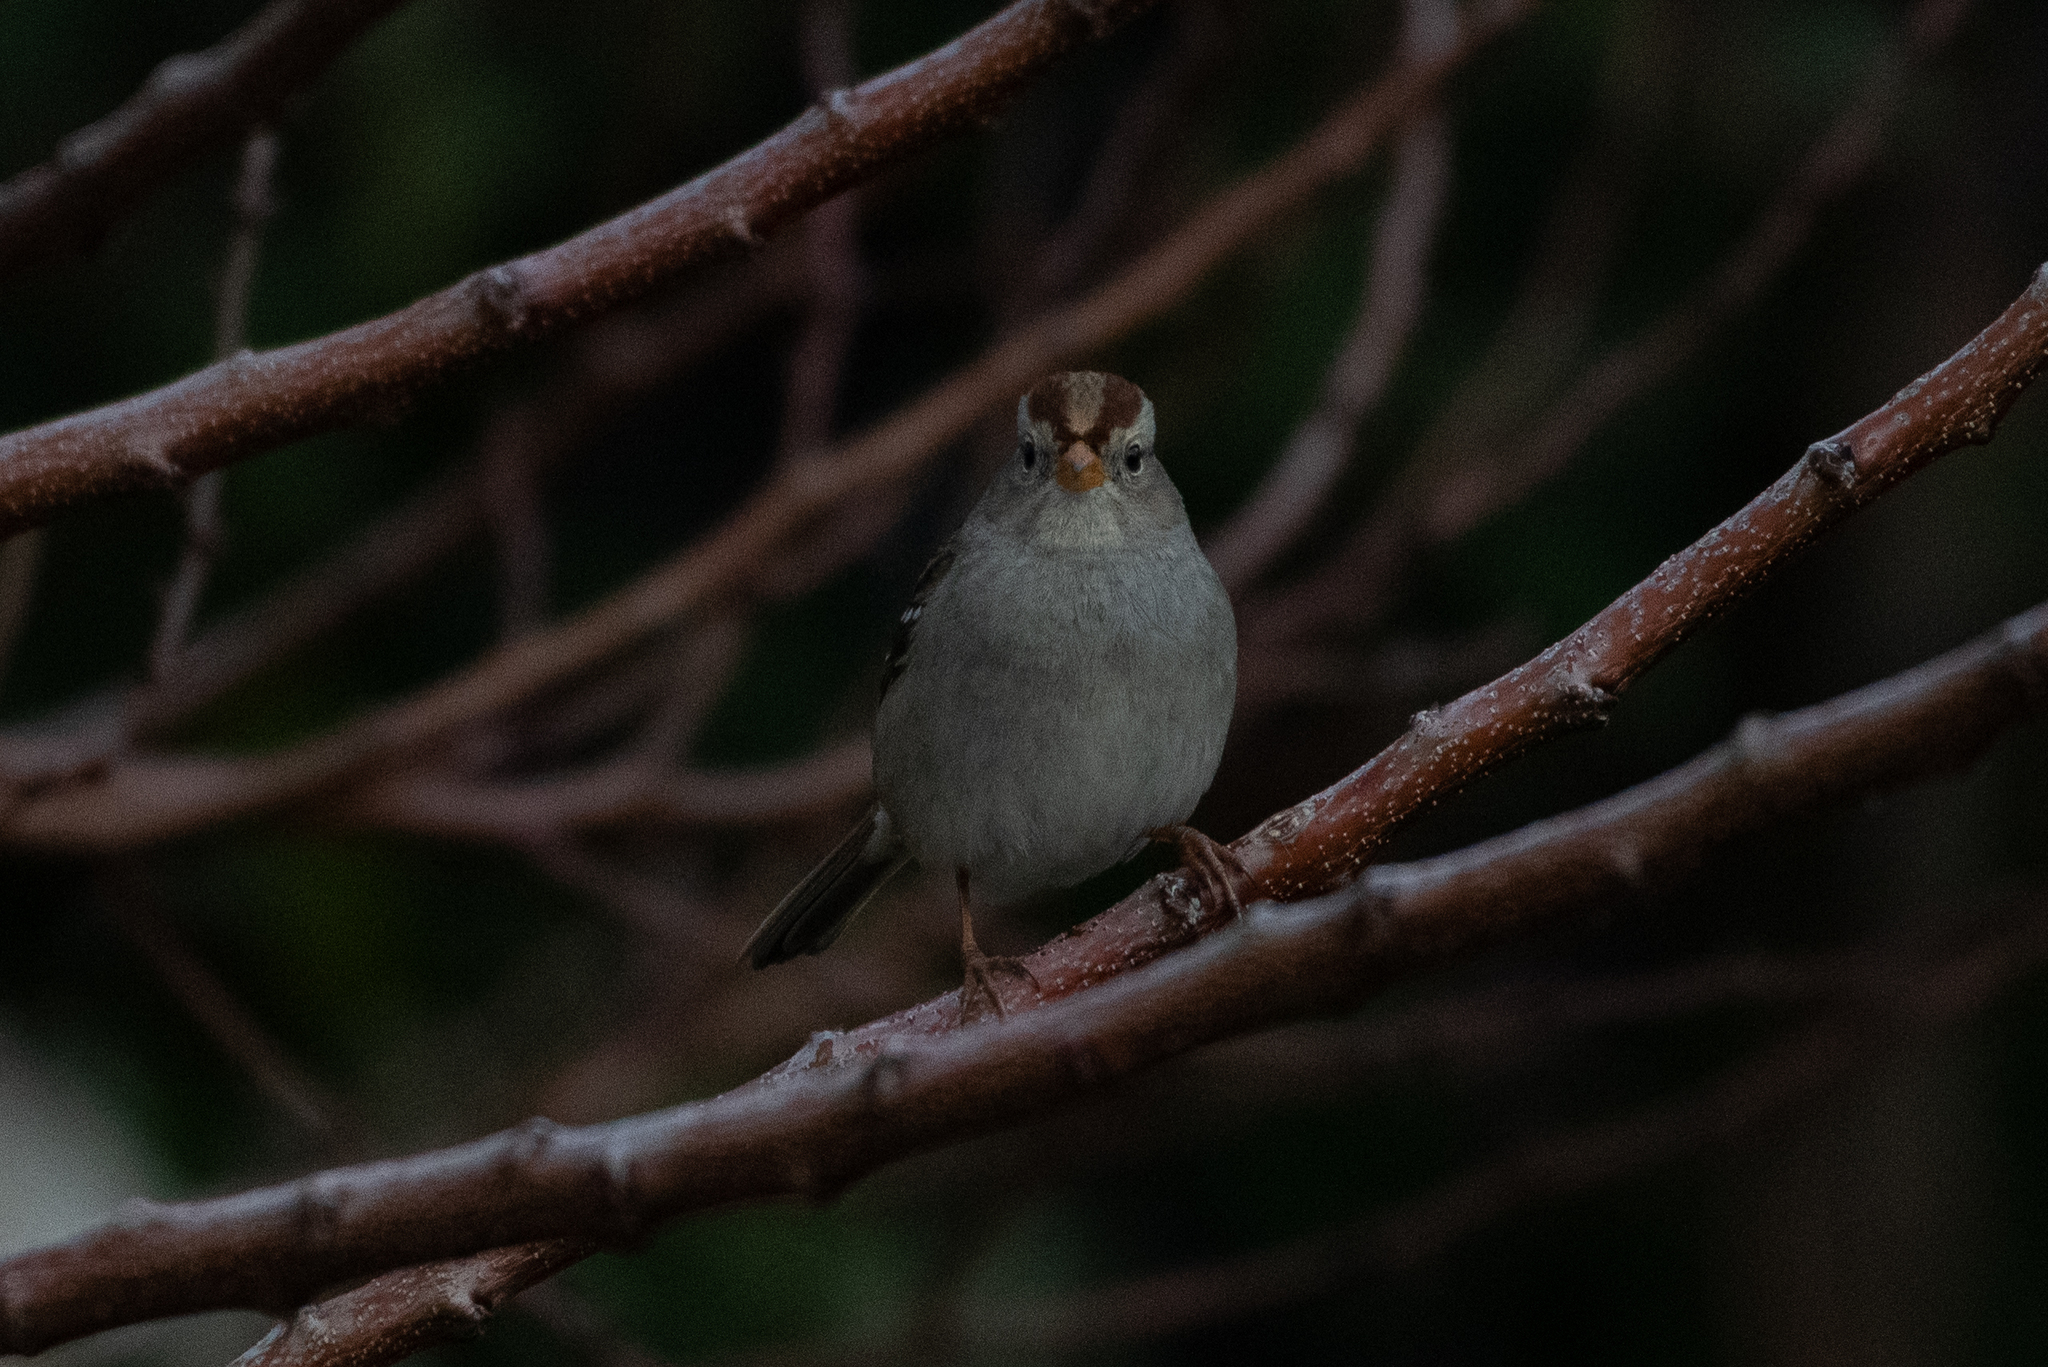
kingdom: Animalia
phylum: Chordata
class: Aves
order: Passeriformes
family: Passerellidae
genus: Zonotrichia
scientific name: Zonotrichia leucophrys
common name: White-crowned sparrow
